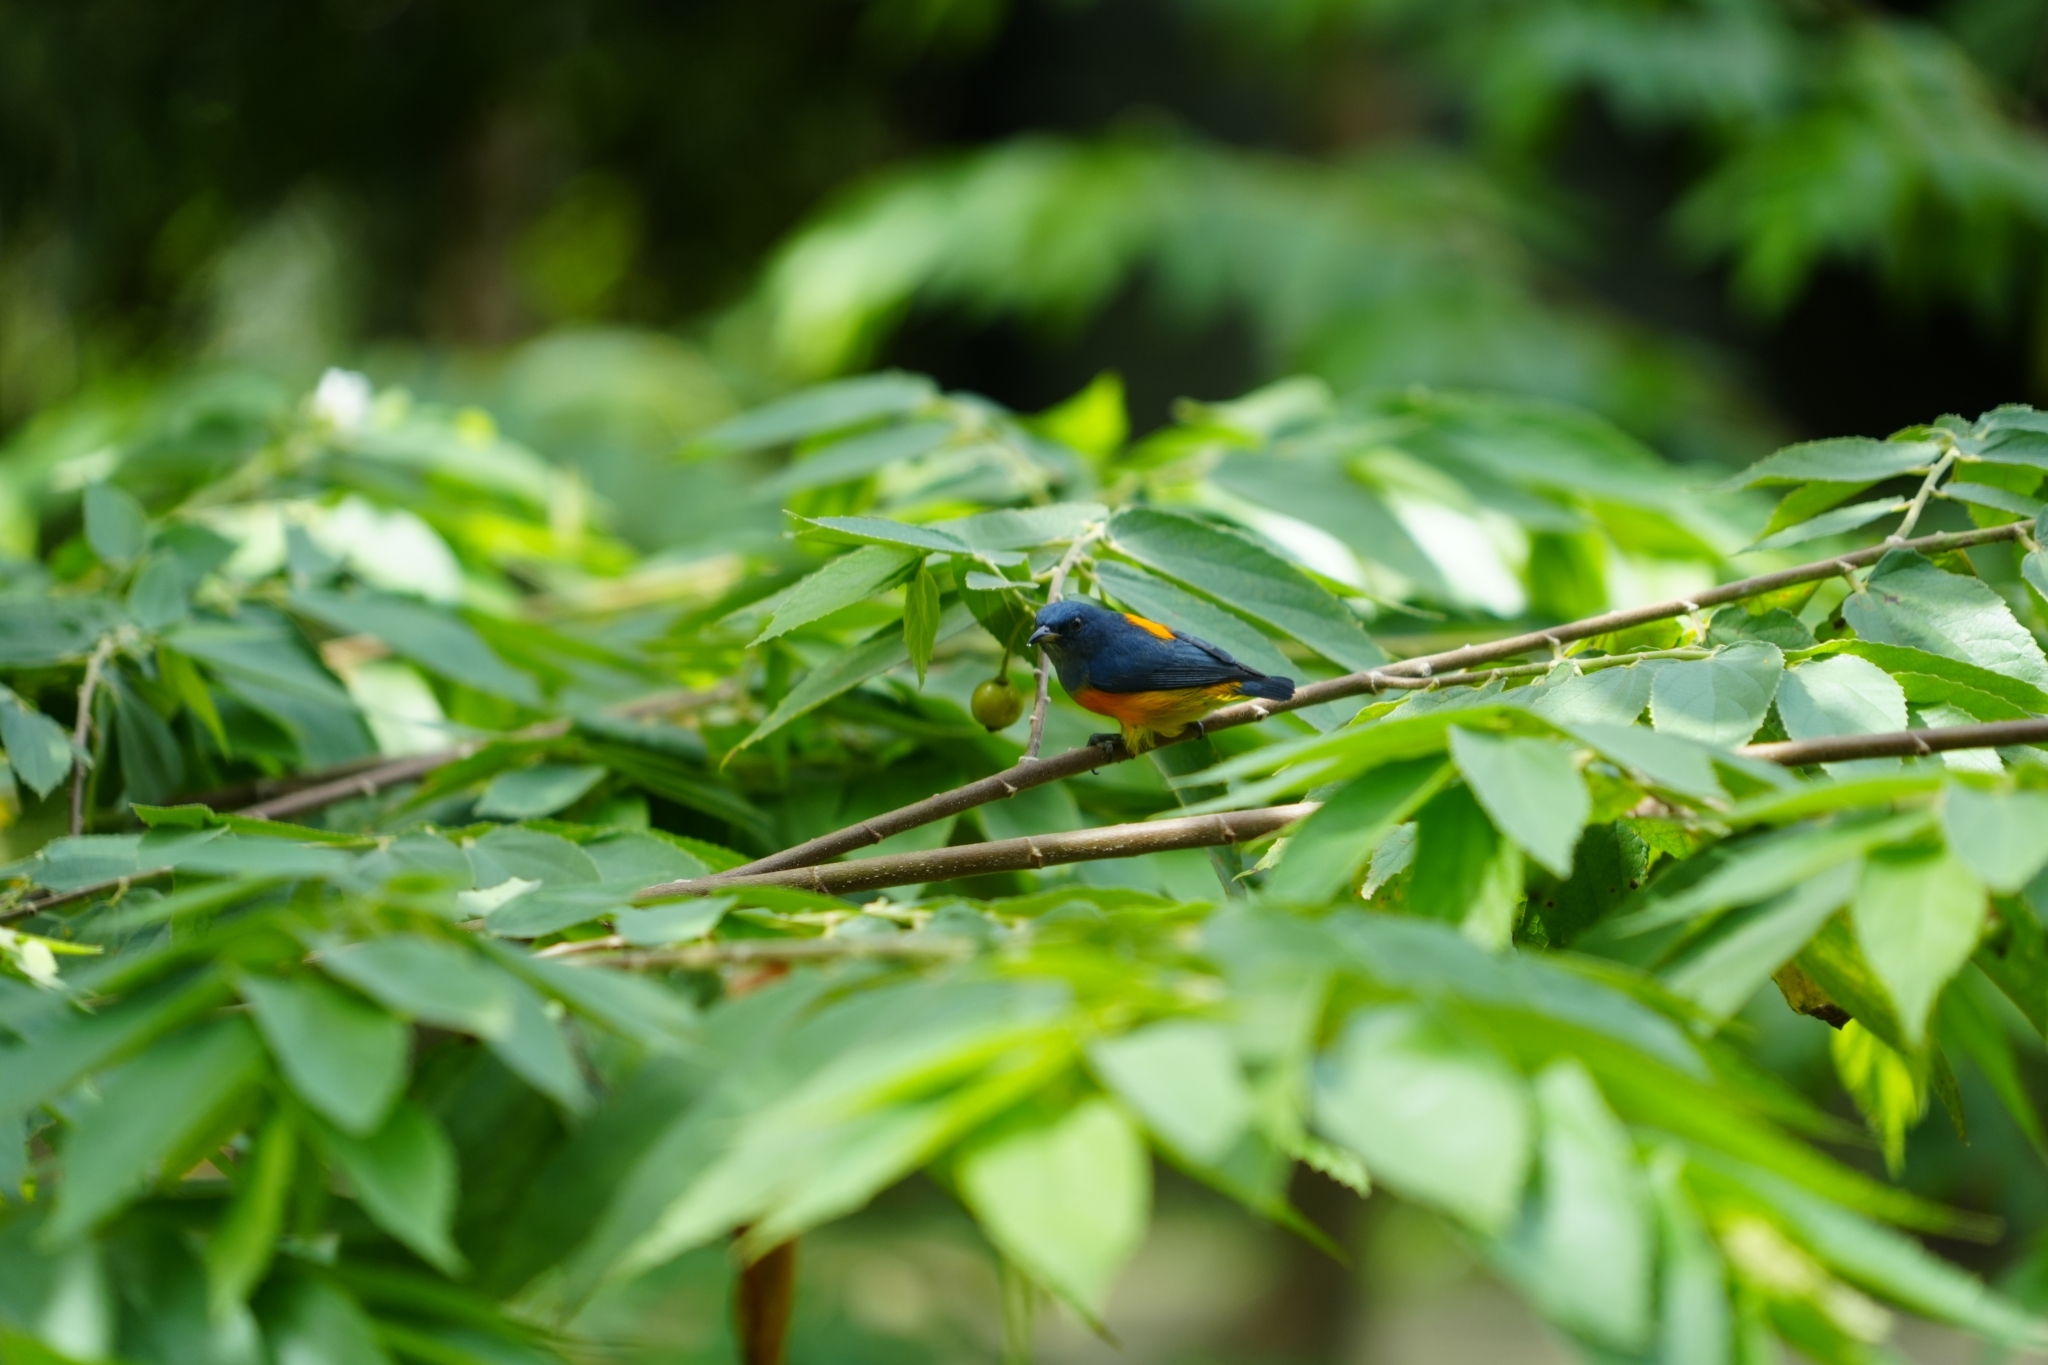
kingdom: Animalia
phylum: Chordata
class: Aves
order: Passeriformes
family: Dicaeidae
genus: Dicaeum
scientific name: Dicaeum trigonostigma
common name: Orange-bellied flowerpecker
